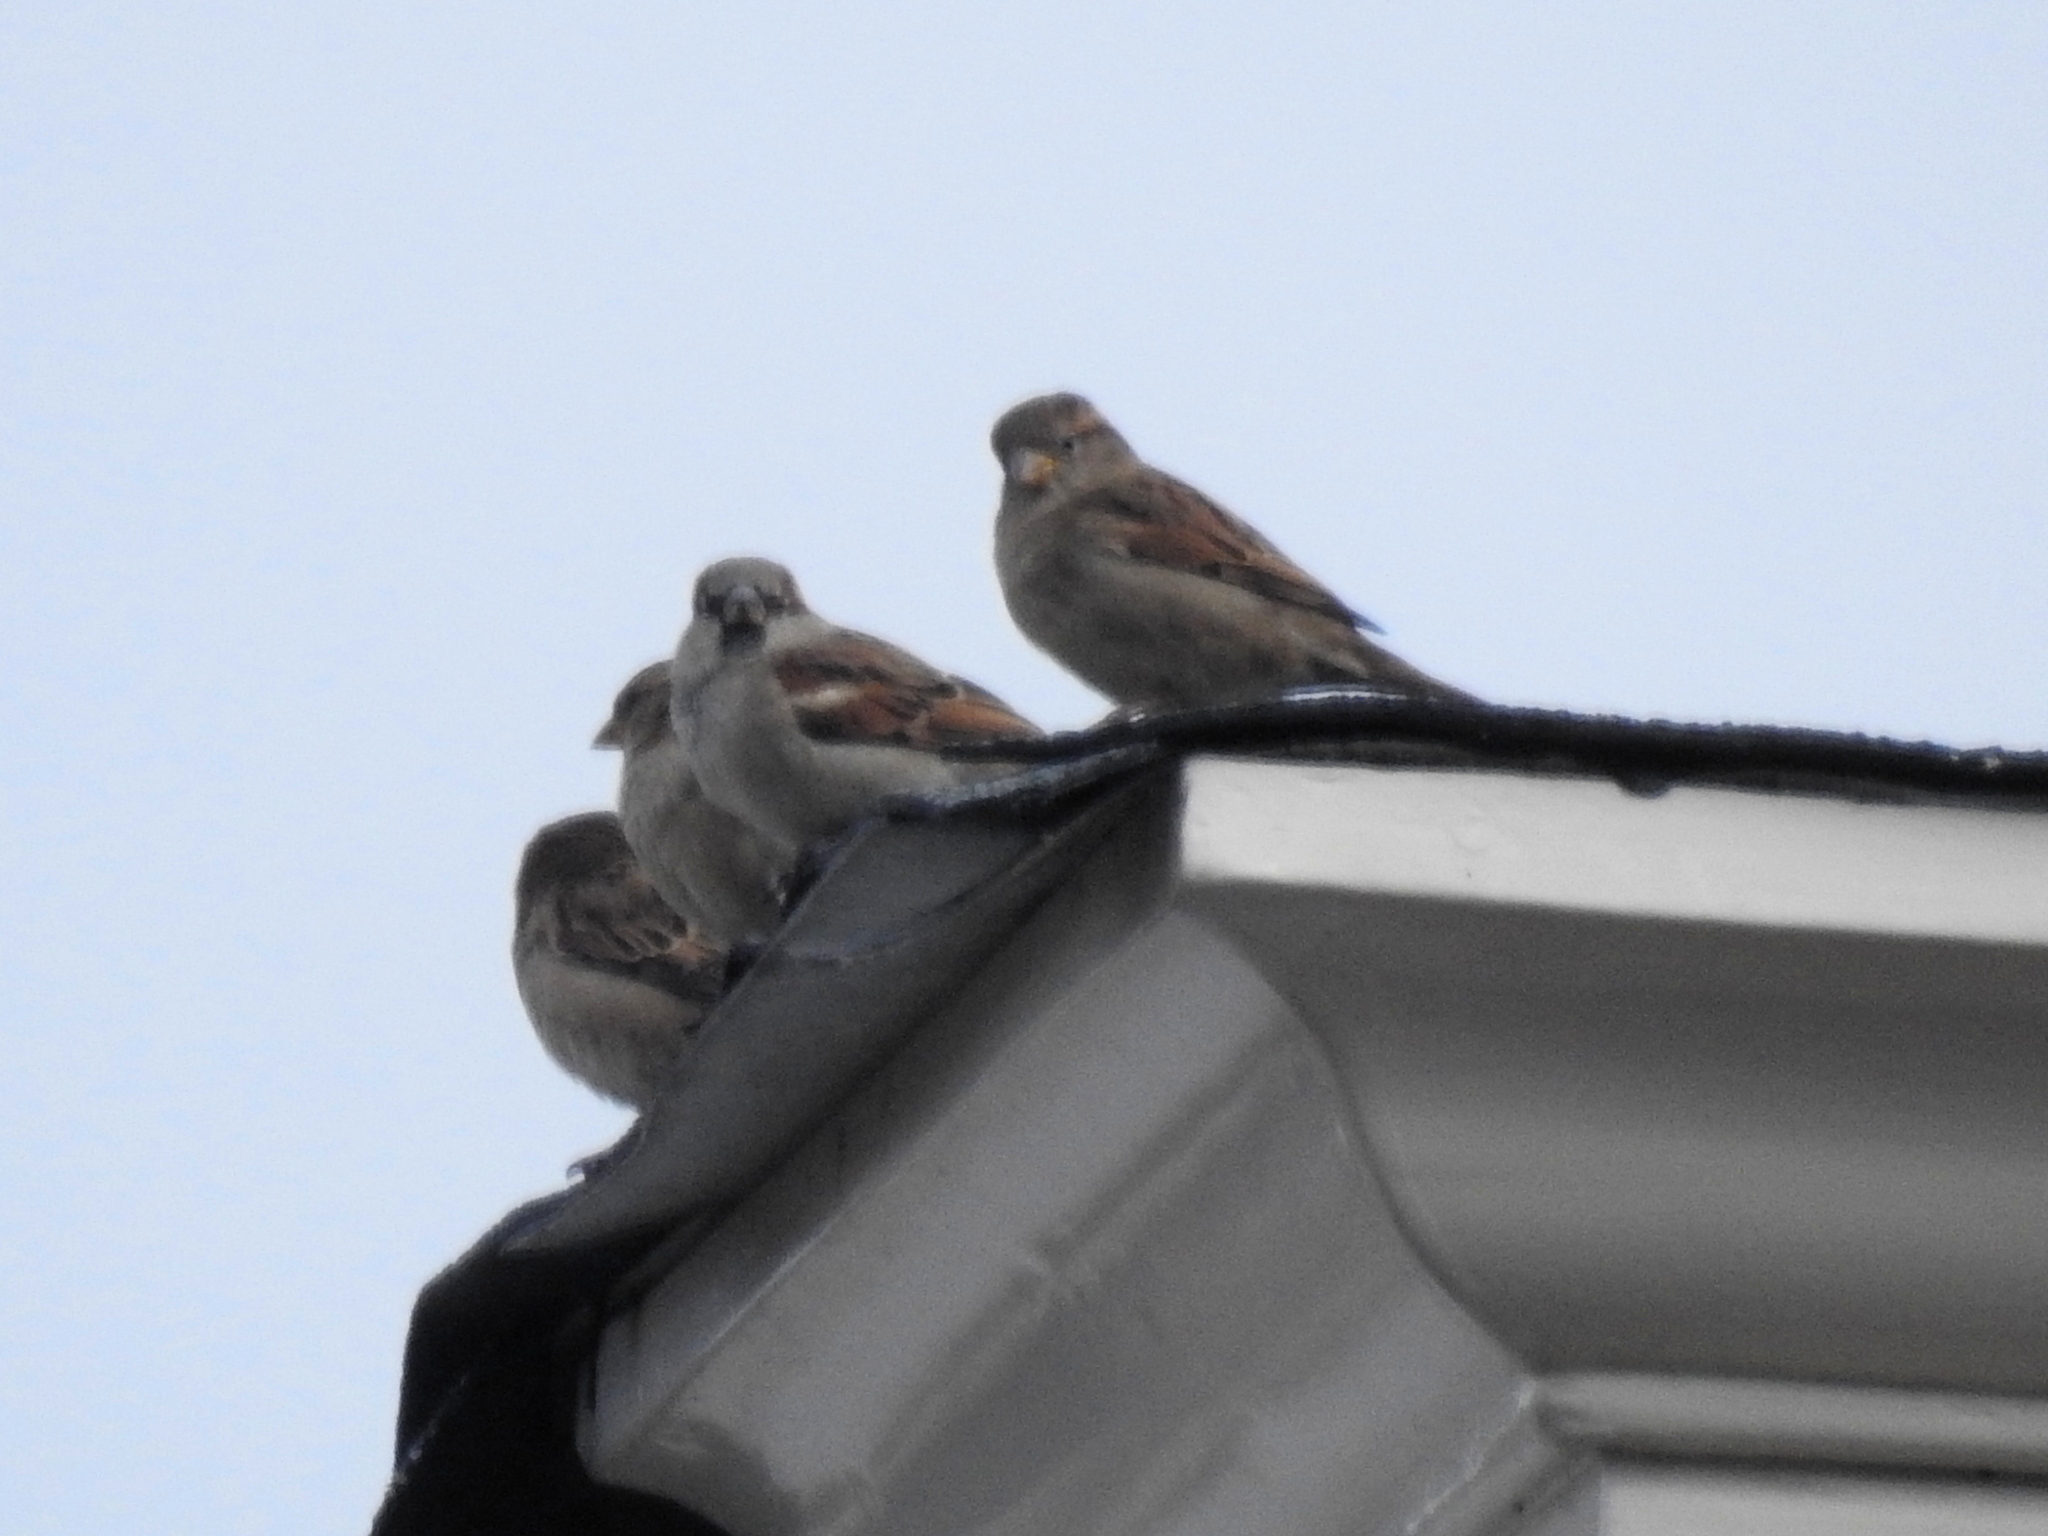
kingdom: Animalia
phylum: Chordata
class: Aves
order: Passeriformes
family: Passeridae
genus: Passer
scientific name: Passer domesticus
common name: House sparrow
